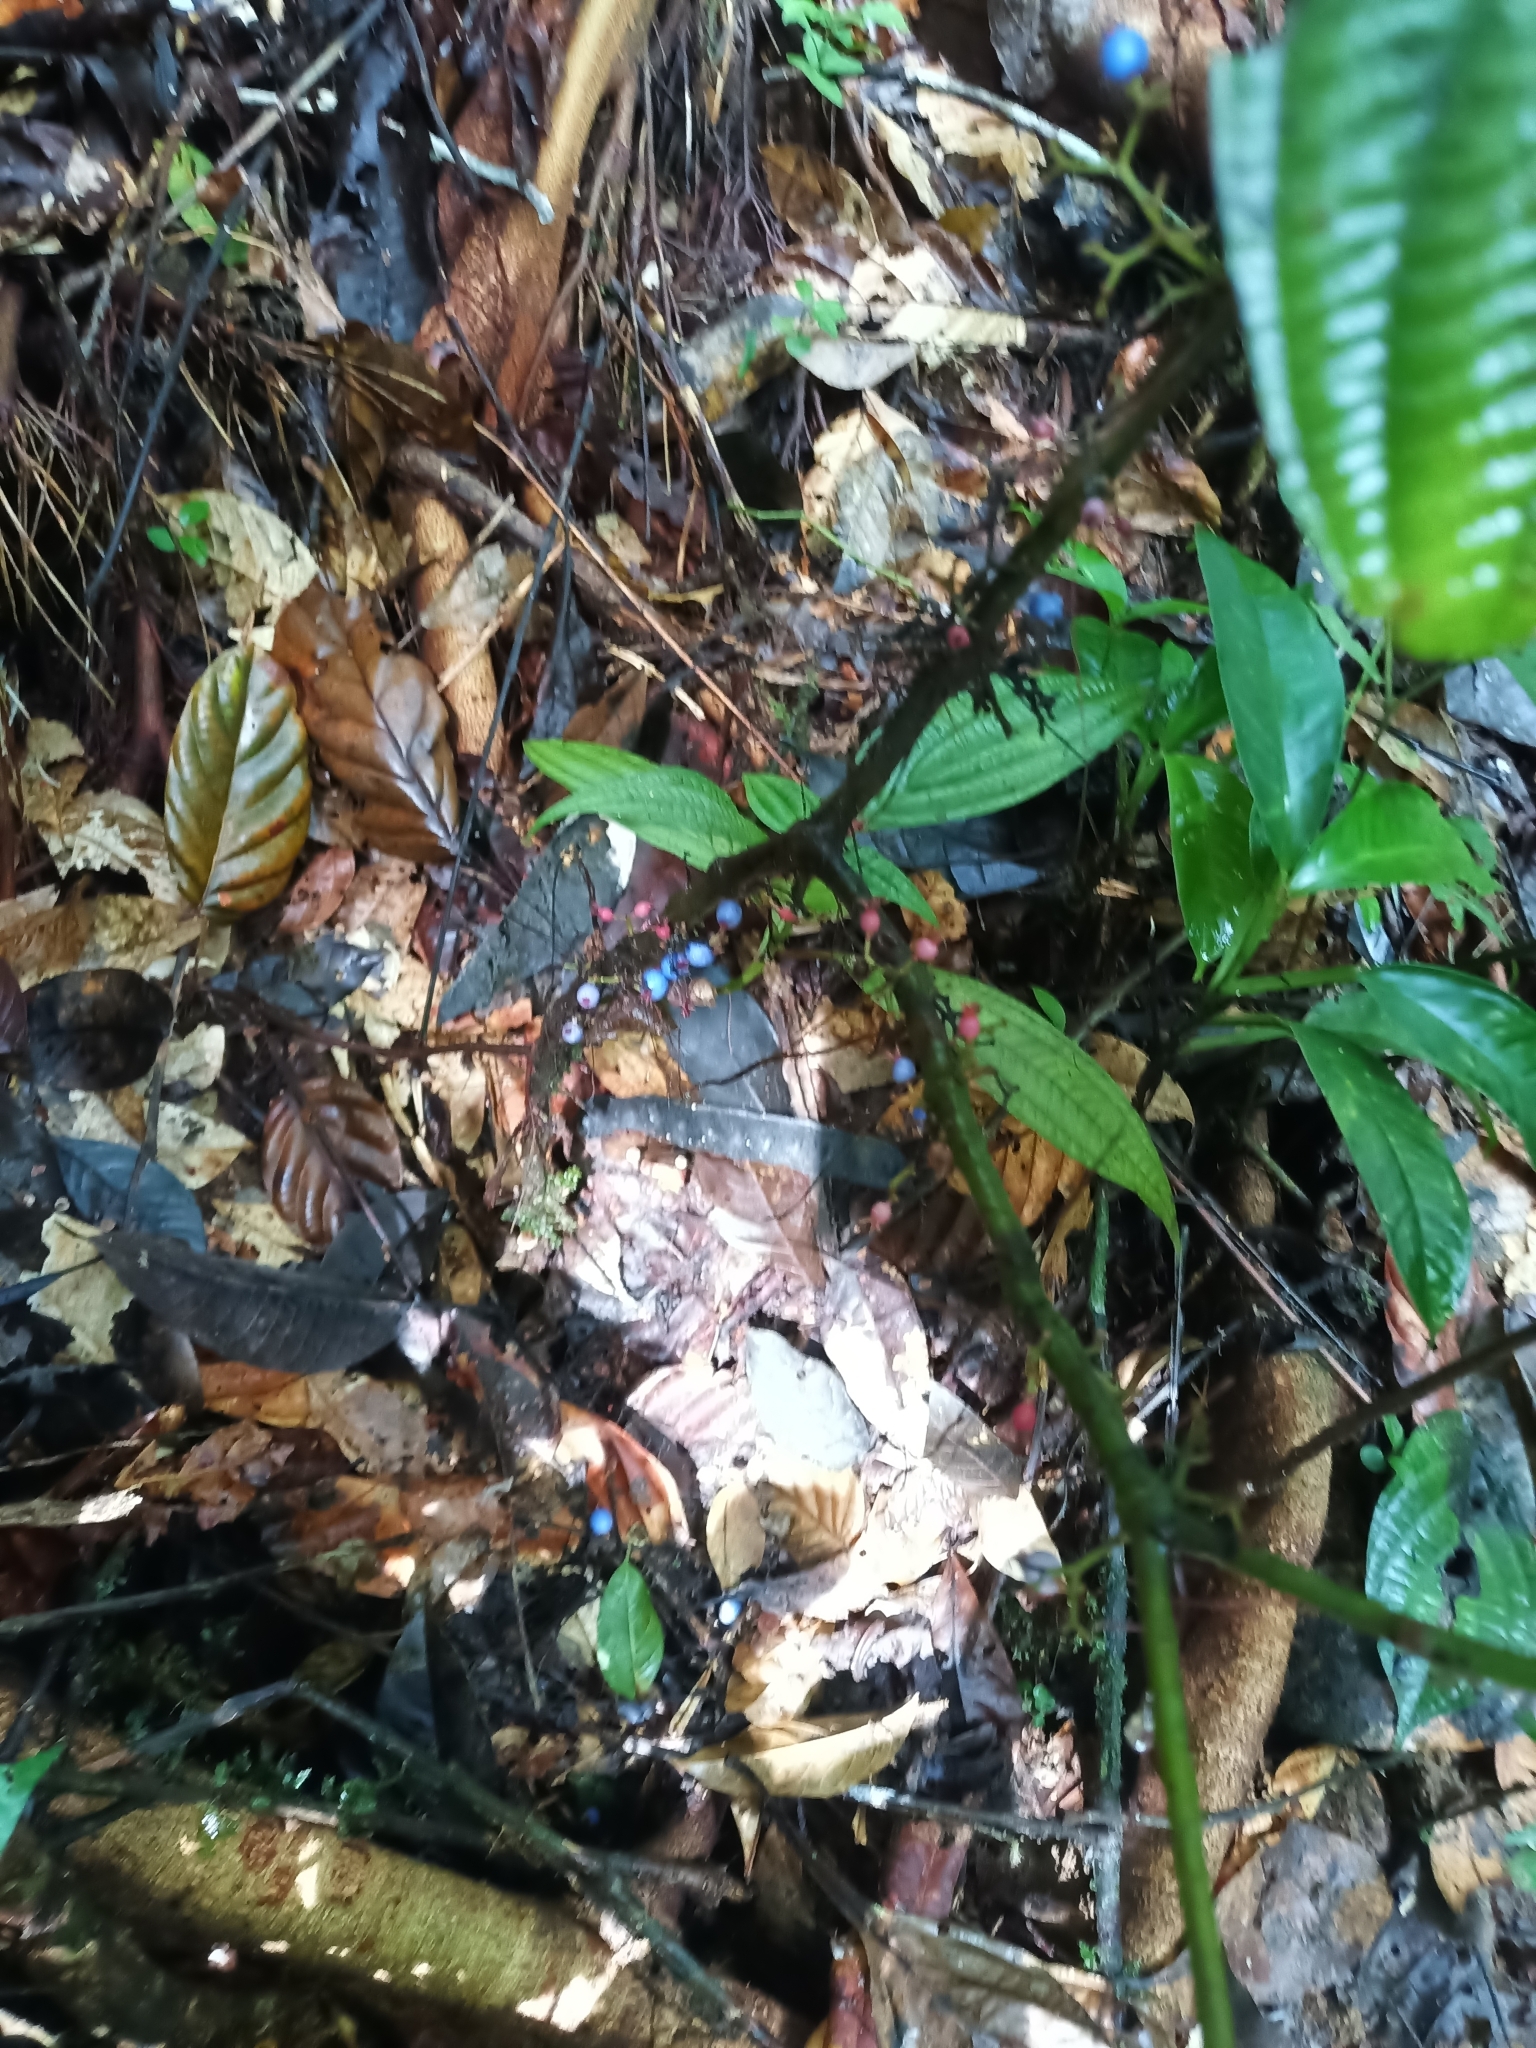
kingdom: Plantae
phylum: Tracheophyta
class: Magnoliopsida
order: Myrtales
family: Melastomataceae
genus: Miconia
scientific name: Miconia trichocalyx
